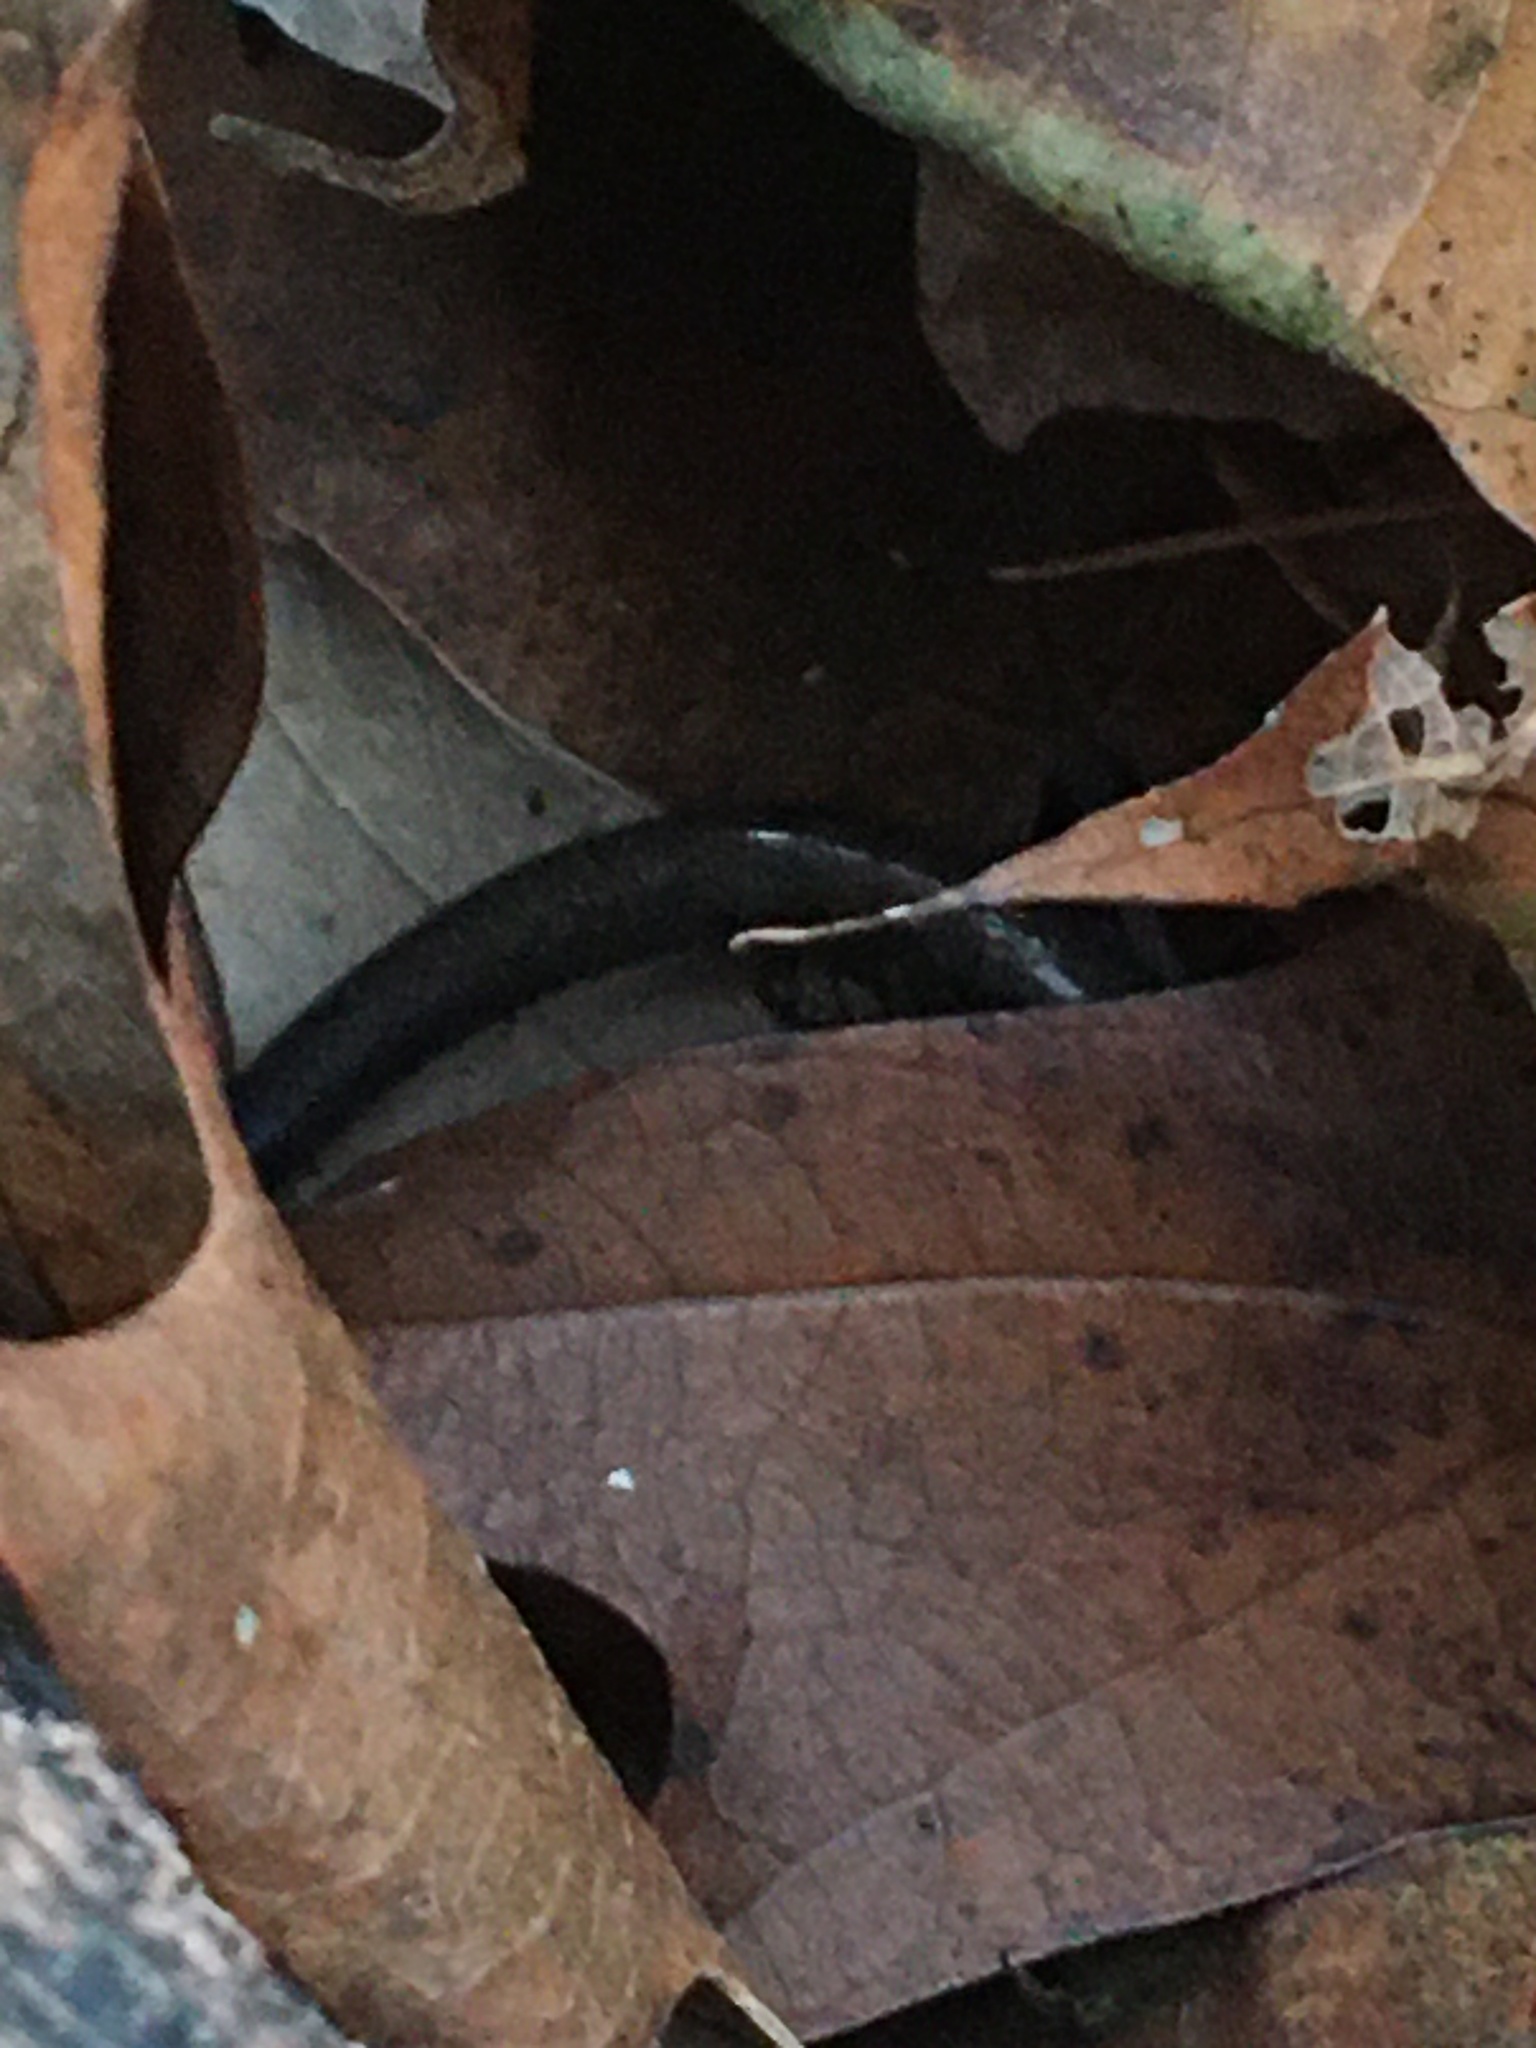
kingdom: Animalia
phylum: Chordata
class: Amphibia
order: Caudata
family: Plethodontidae
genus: Plethodon
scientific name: Plethodon cinereus
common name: Redback salamander
